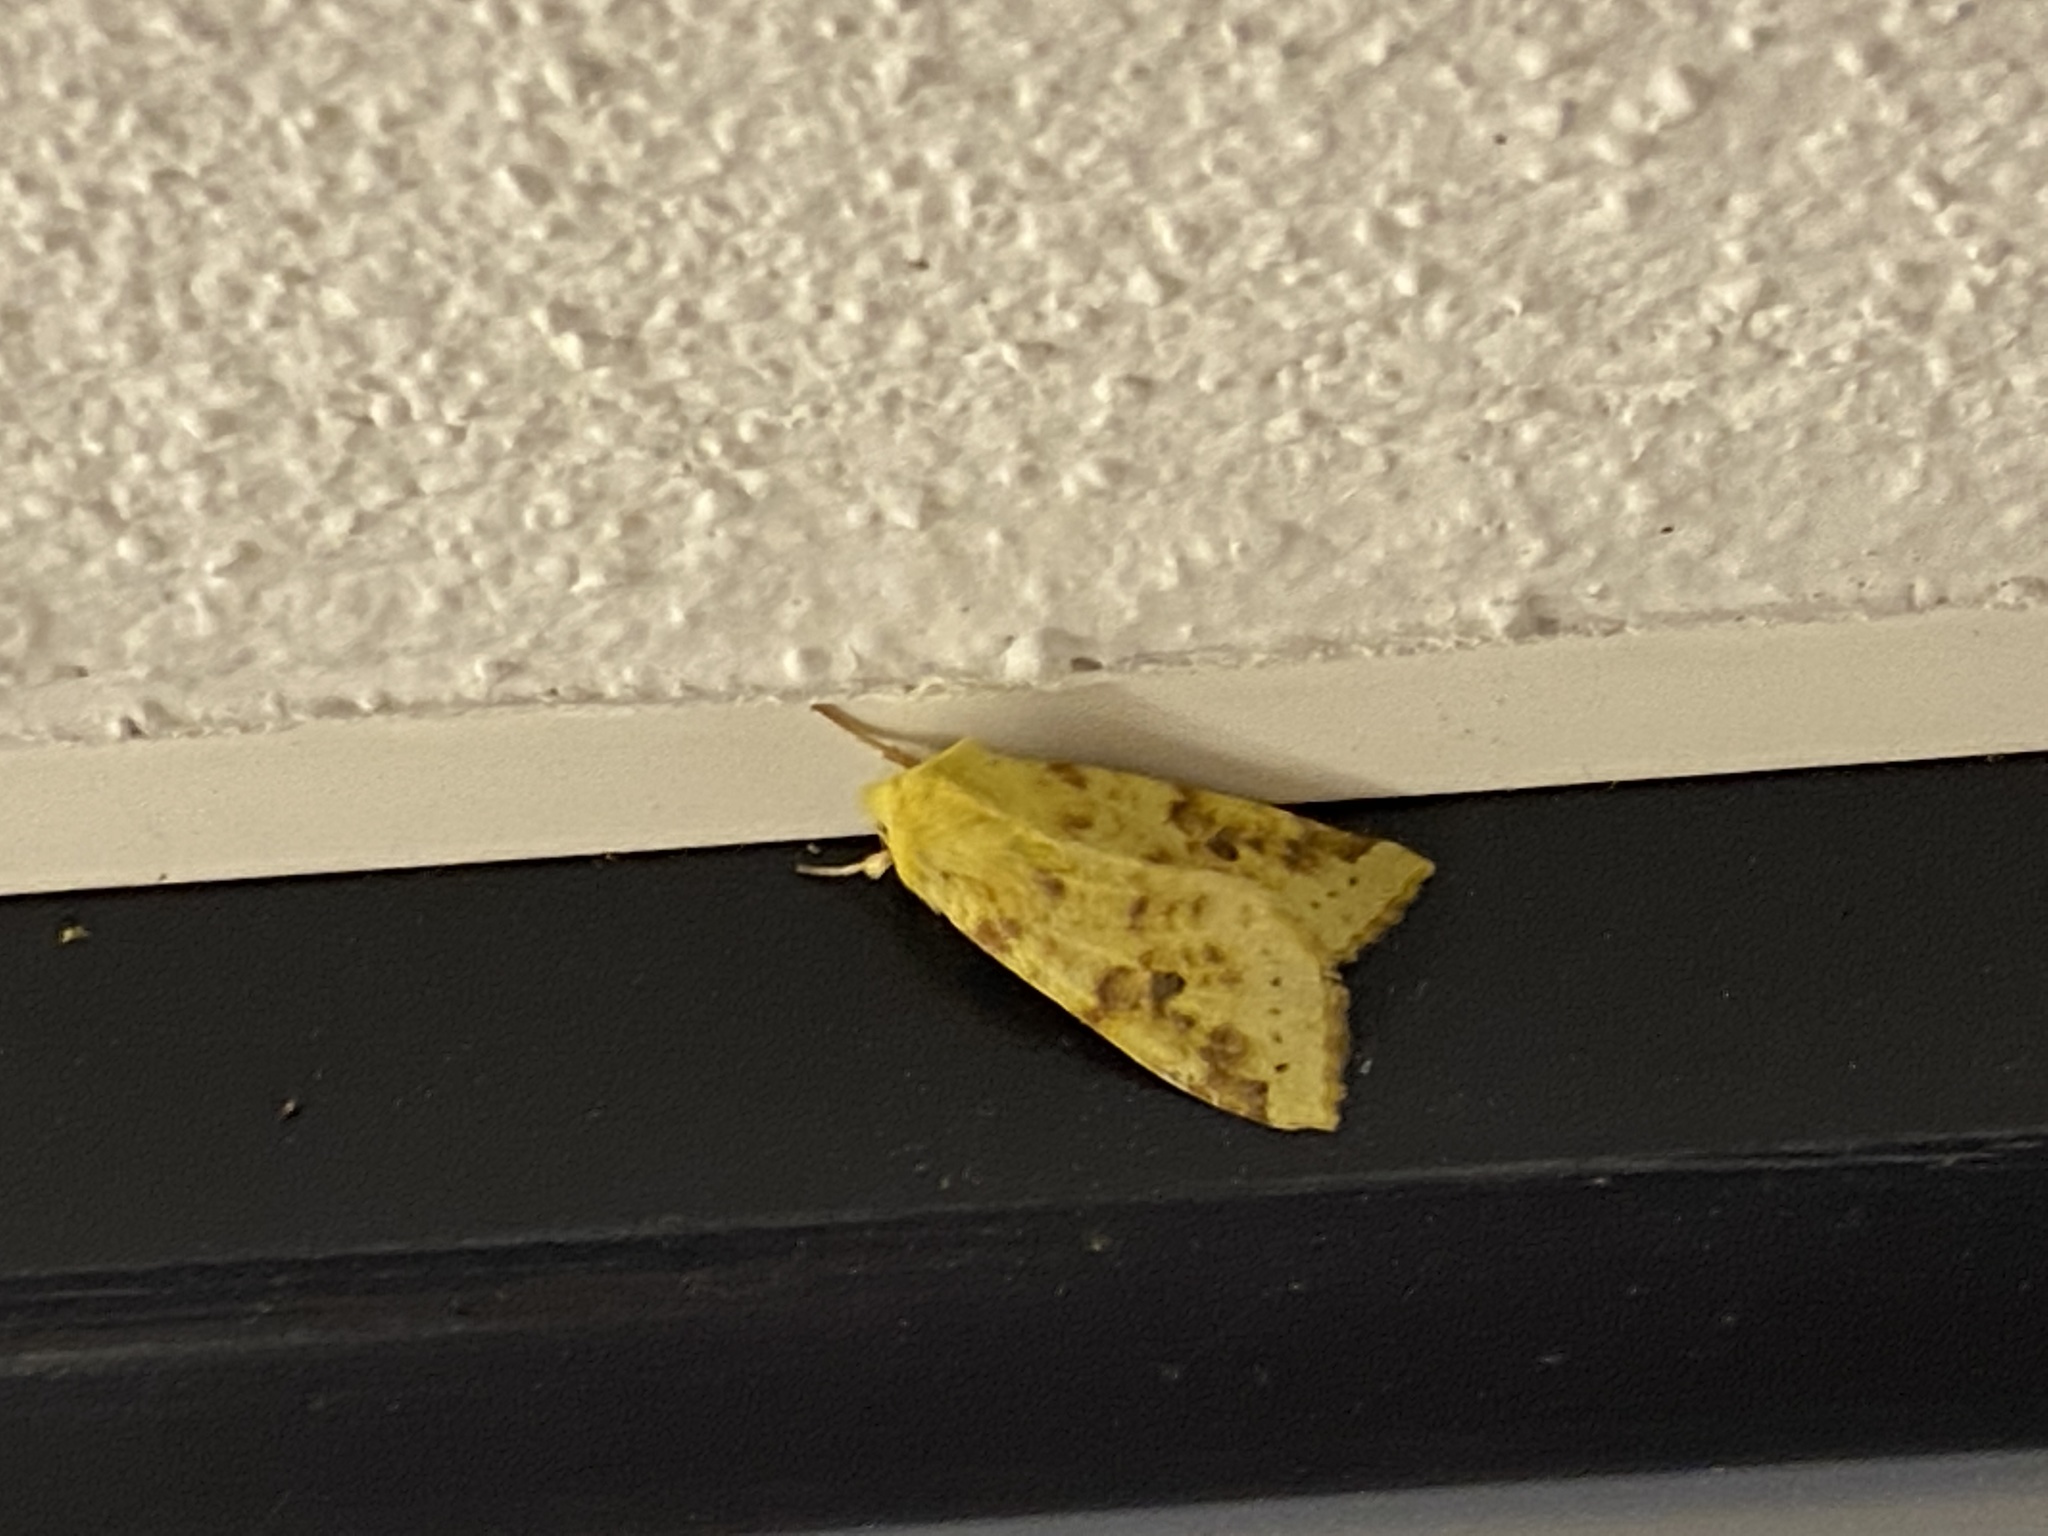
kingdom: Animalia
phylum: Arthropoda
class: Insecta
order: Lepidoptera
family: Noctuidae
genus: Xanthia
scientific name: Xanthia icteritia
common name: The sallow
